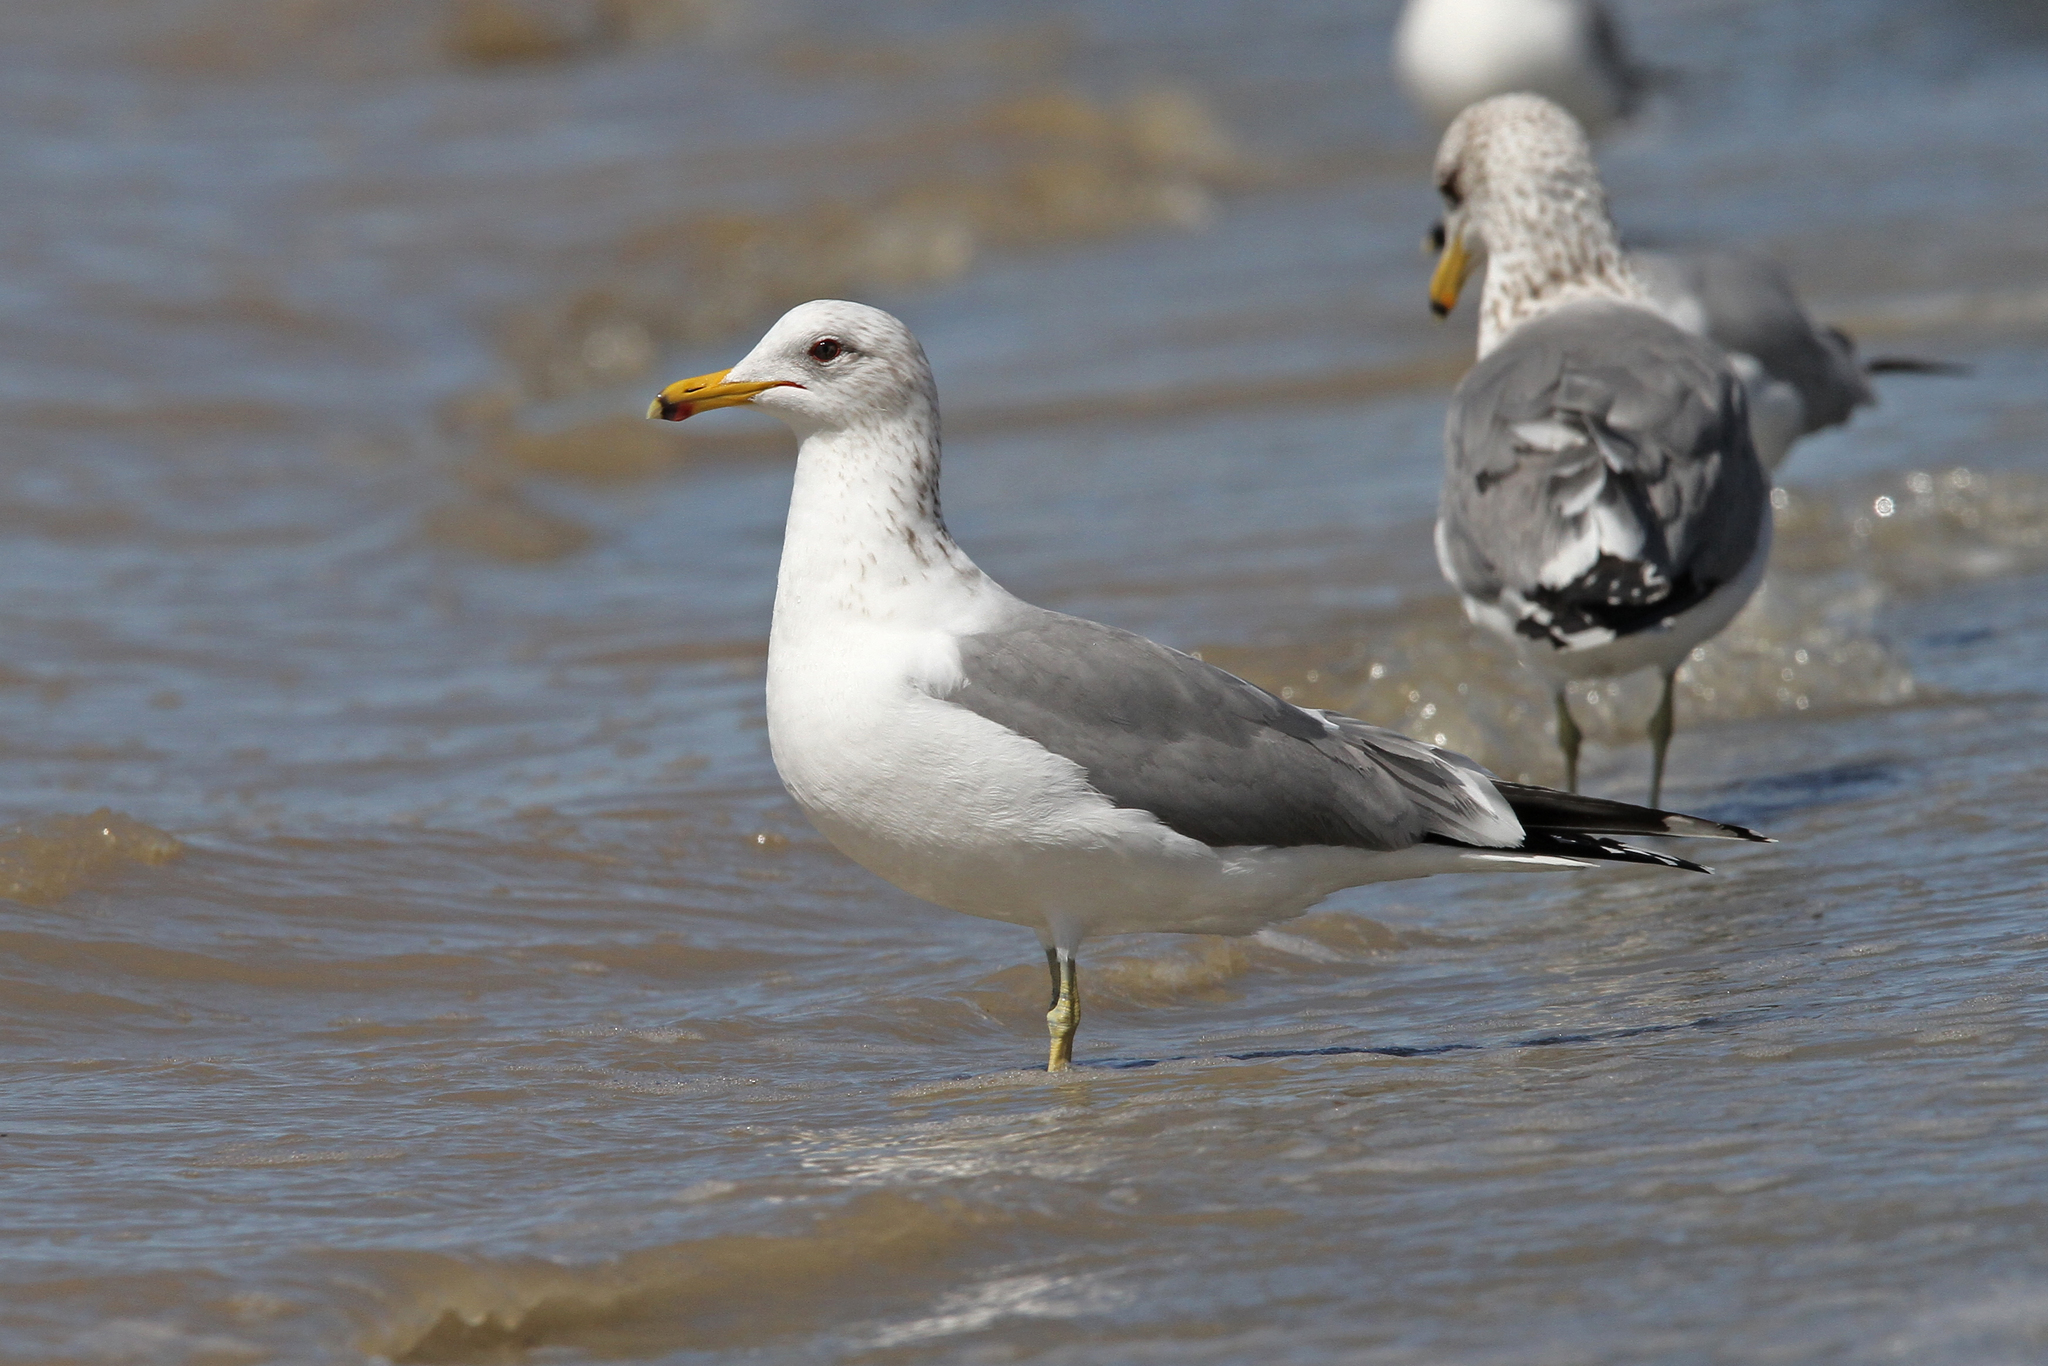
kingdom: Animalia
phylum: Chordata
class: Aves
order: Charadriiformes
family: Laridae
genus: Larus
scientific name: Larus californicus
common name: California gull
